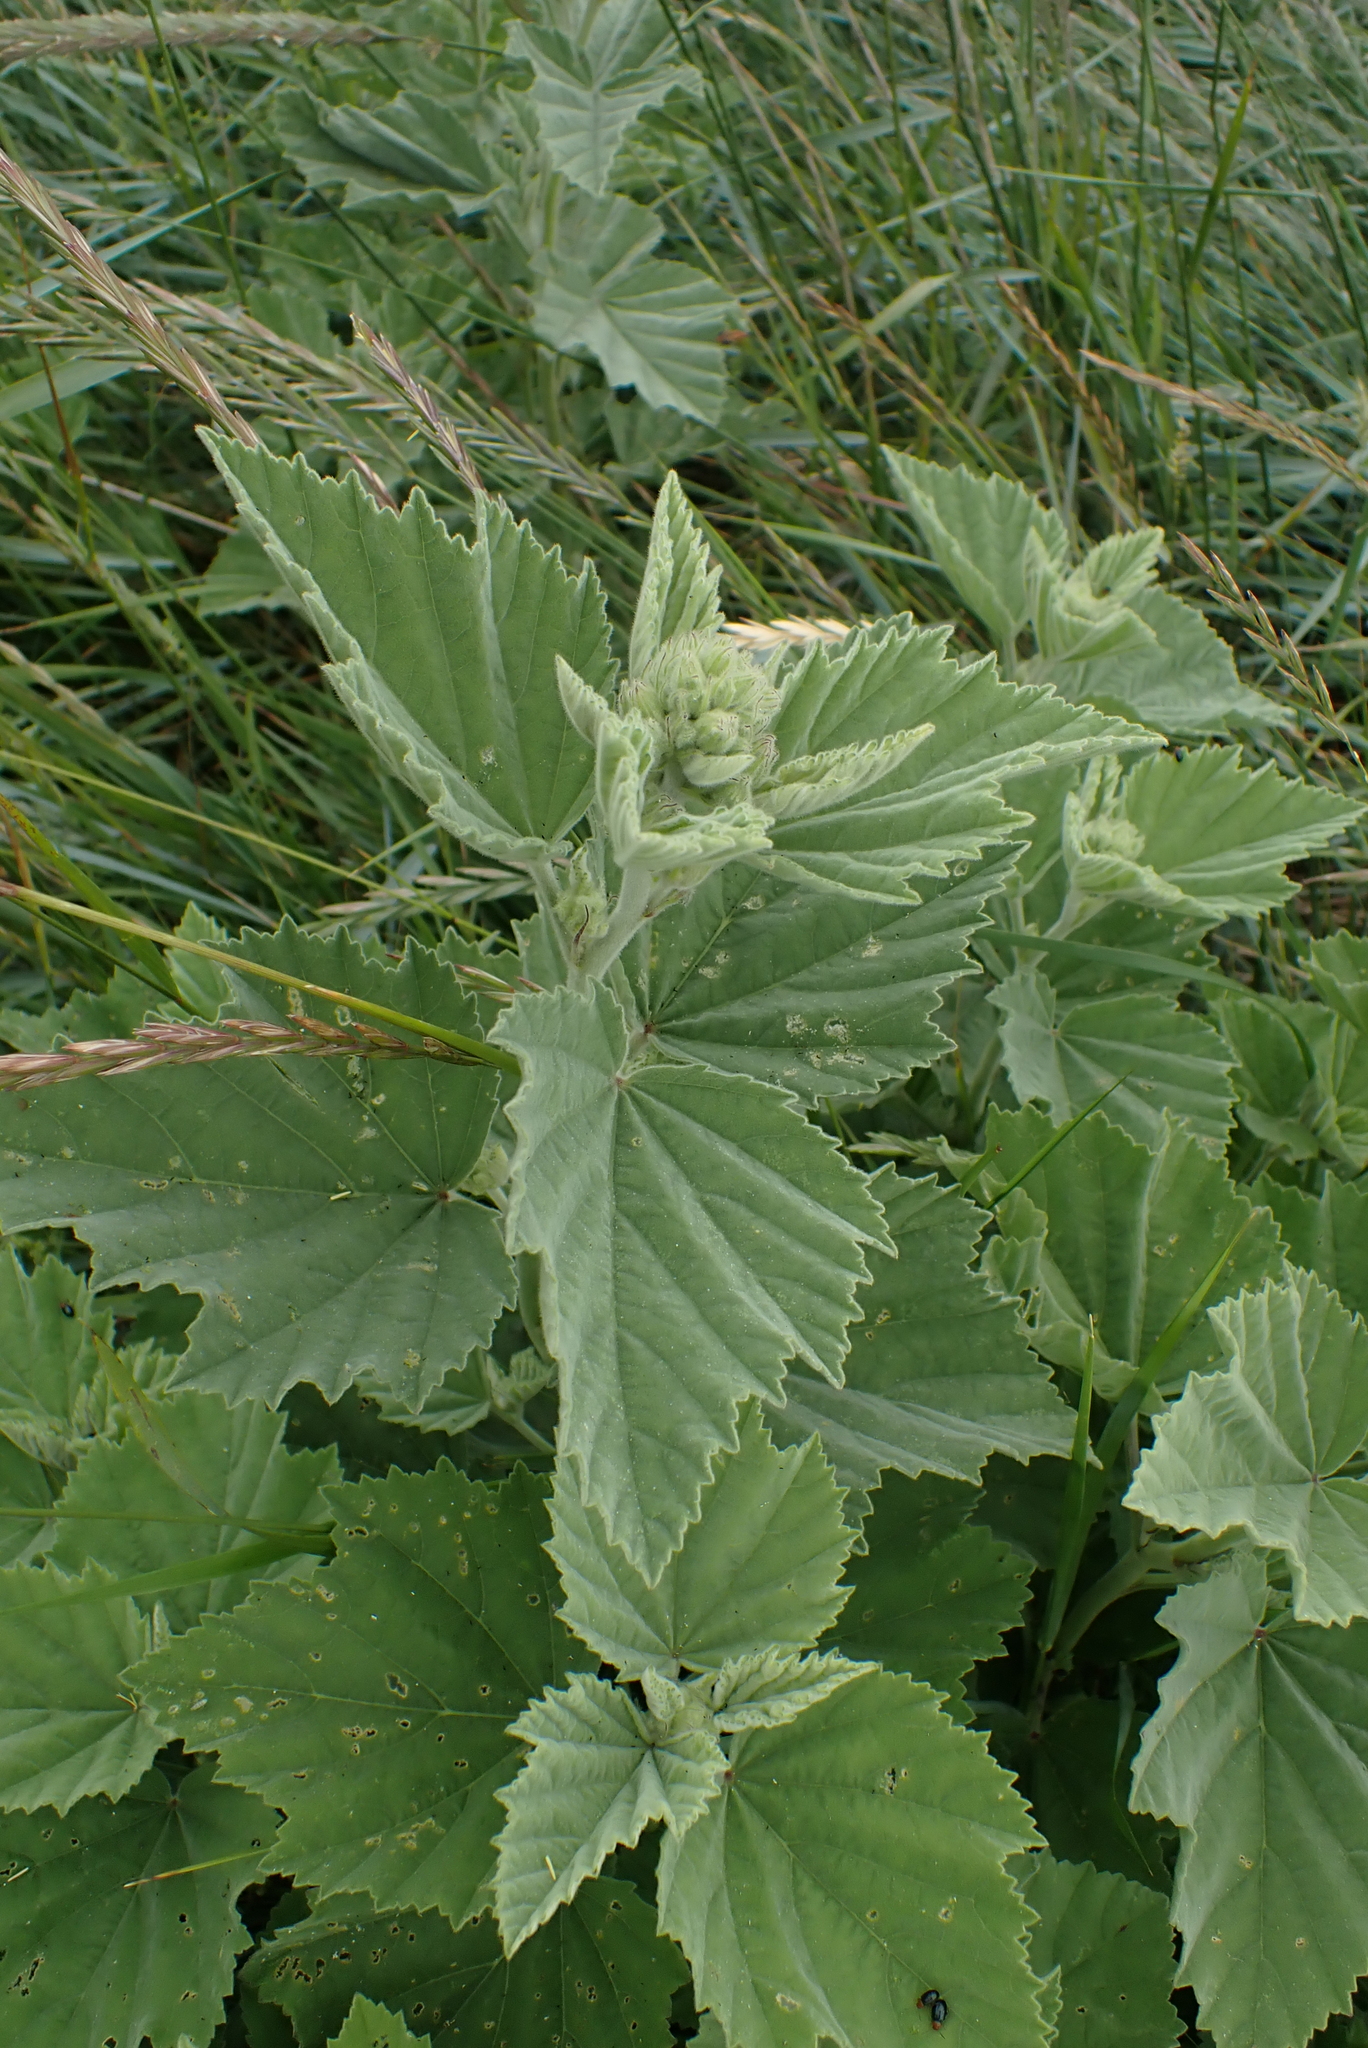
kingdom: Plantae
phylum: Tracheophyta
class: Magnoliopsida
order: Malvales
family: Malvaceae
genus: Althaea
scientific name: Althaea officinalis
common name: Marsh-mallow
